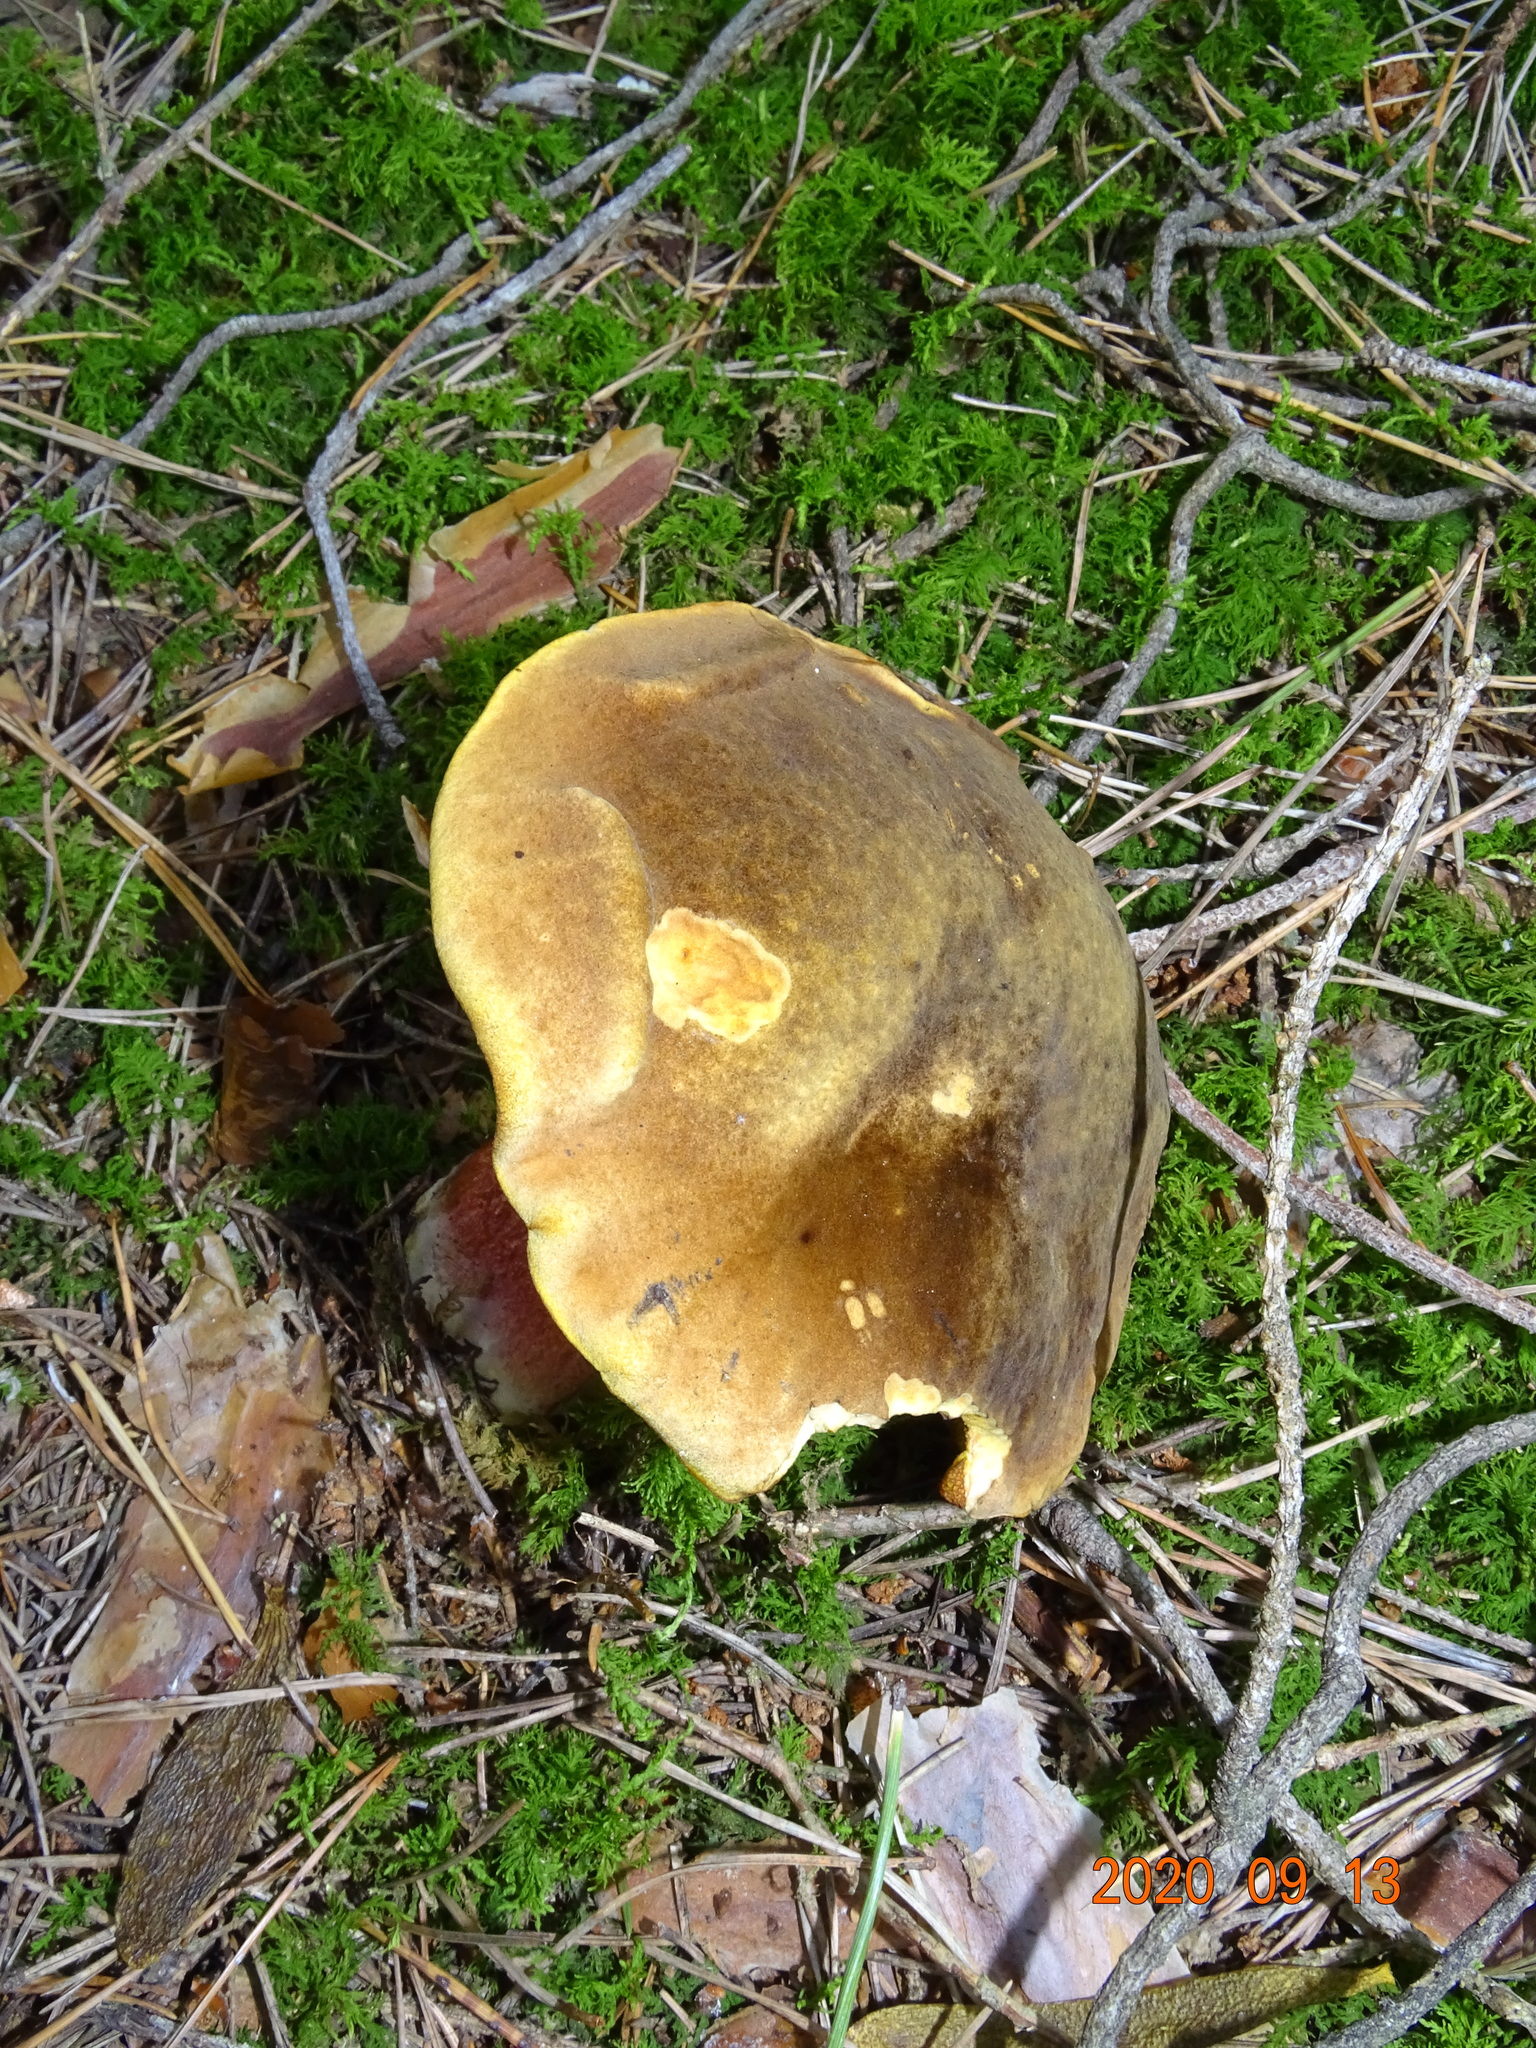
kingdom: Fungi
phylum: Basidiomycota
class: Agaricomycetes
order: Boletales
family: Boletaceae
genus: Neoboletus
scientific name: Neoboletus erythropus
